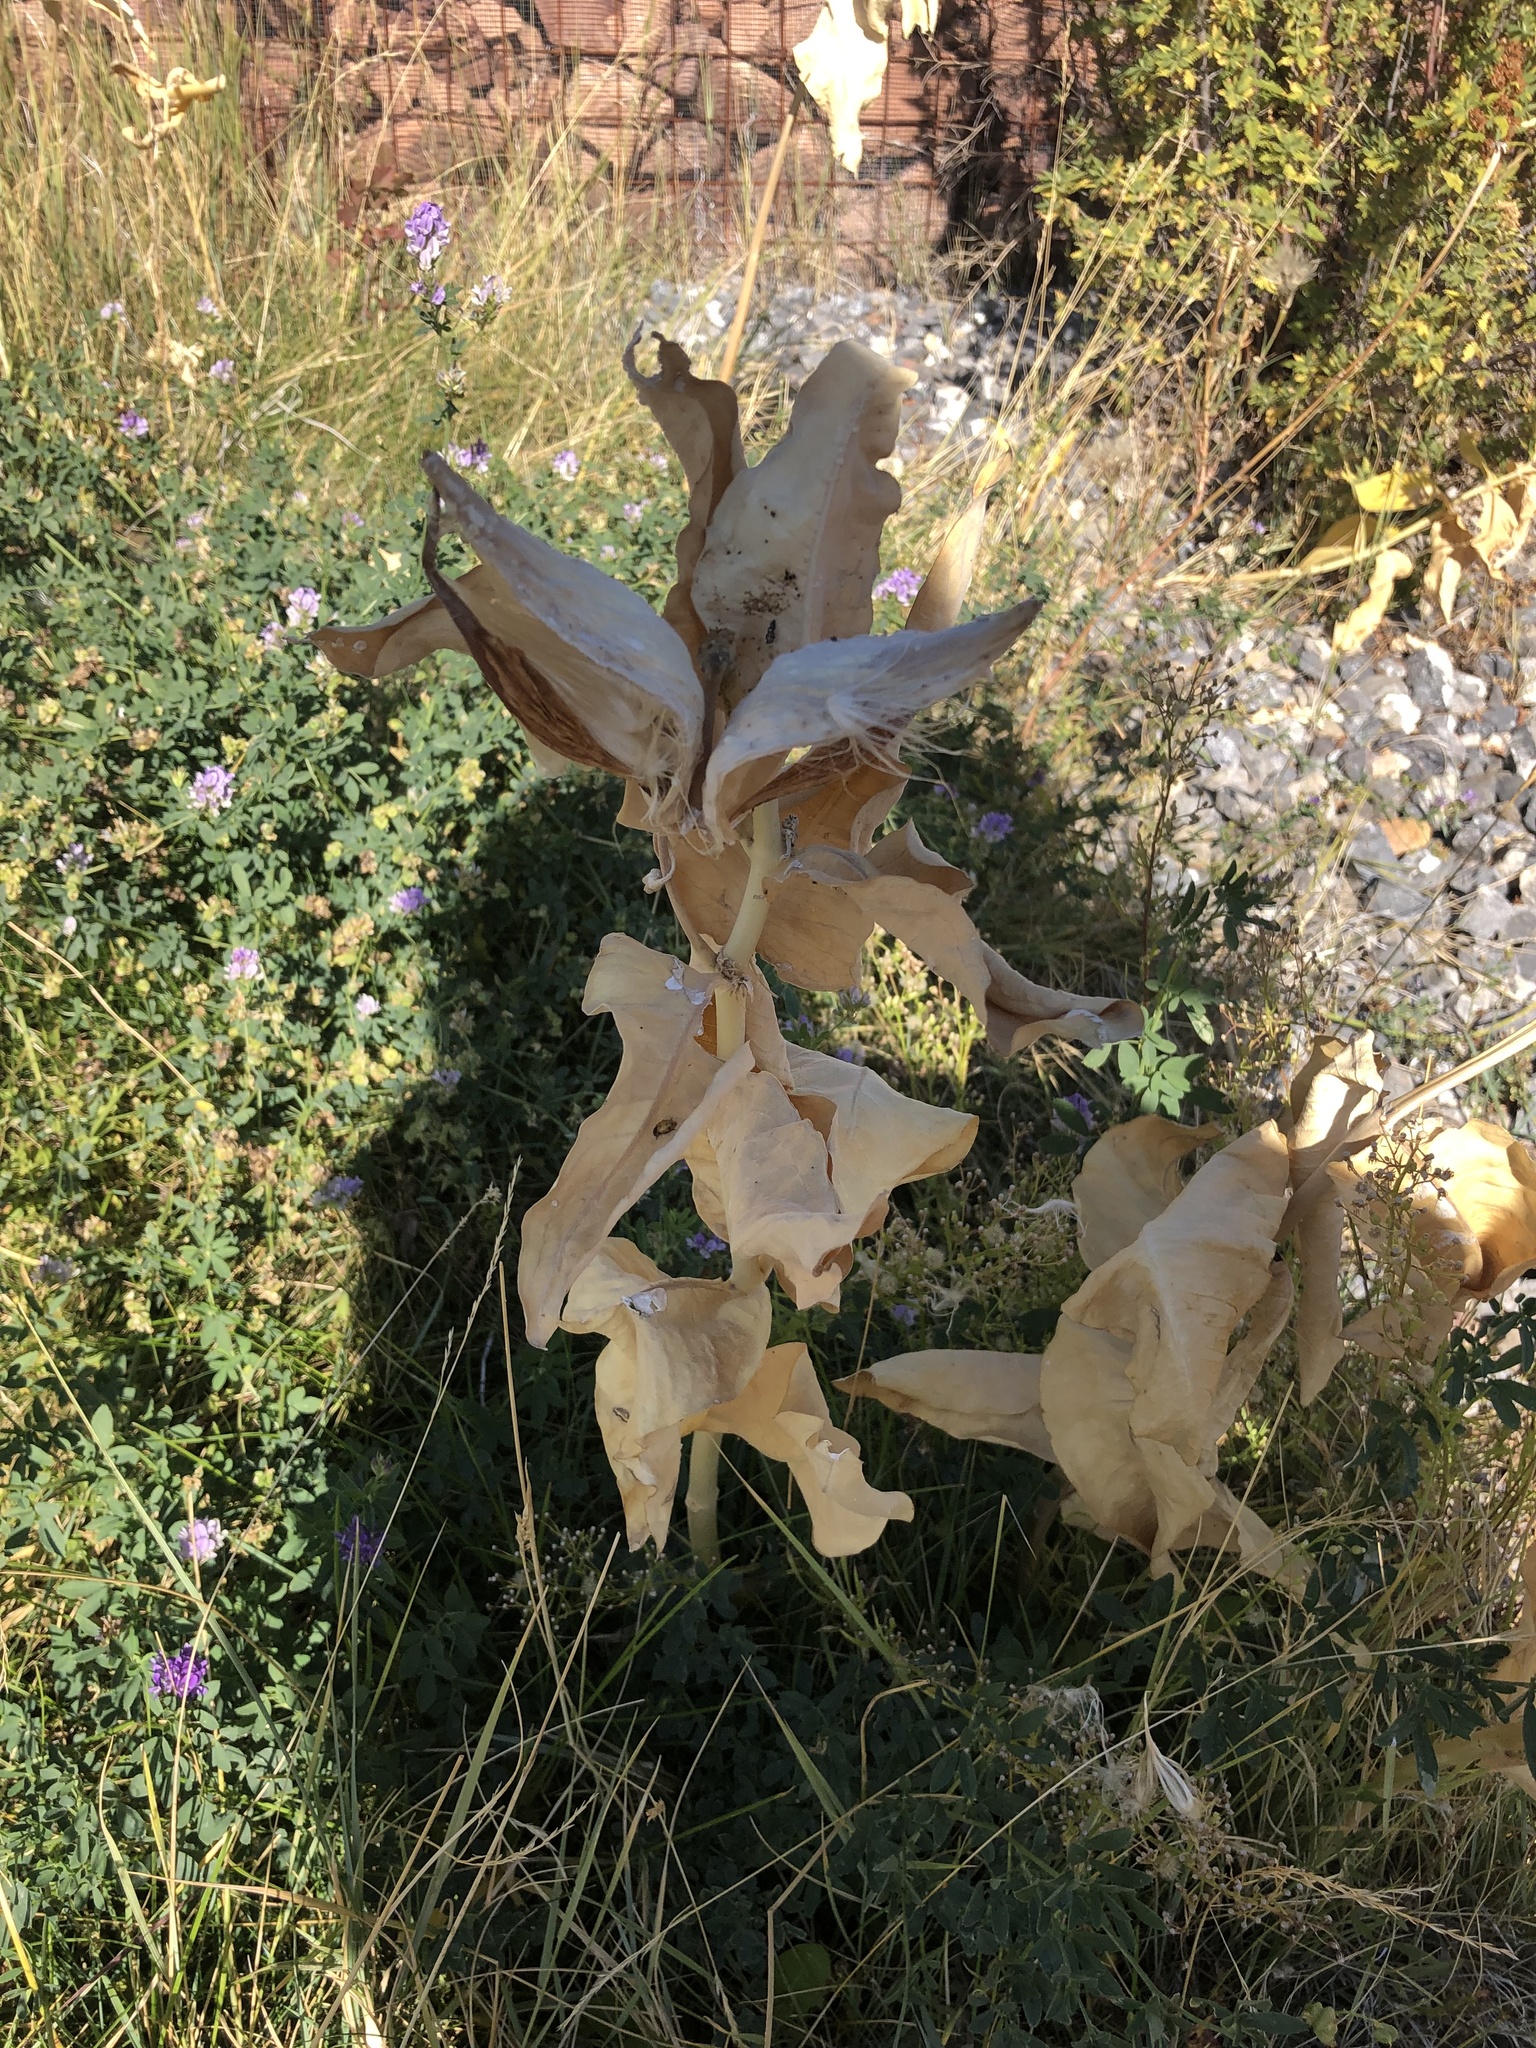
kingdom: Animalia
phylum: Arthropoda
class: Insecta
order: Coleoptera
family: Coccinellidae
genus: Hippodamia
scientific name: Hippodamia convergens
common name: Convergent lady beetle
